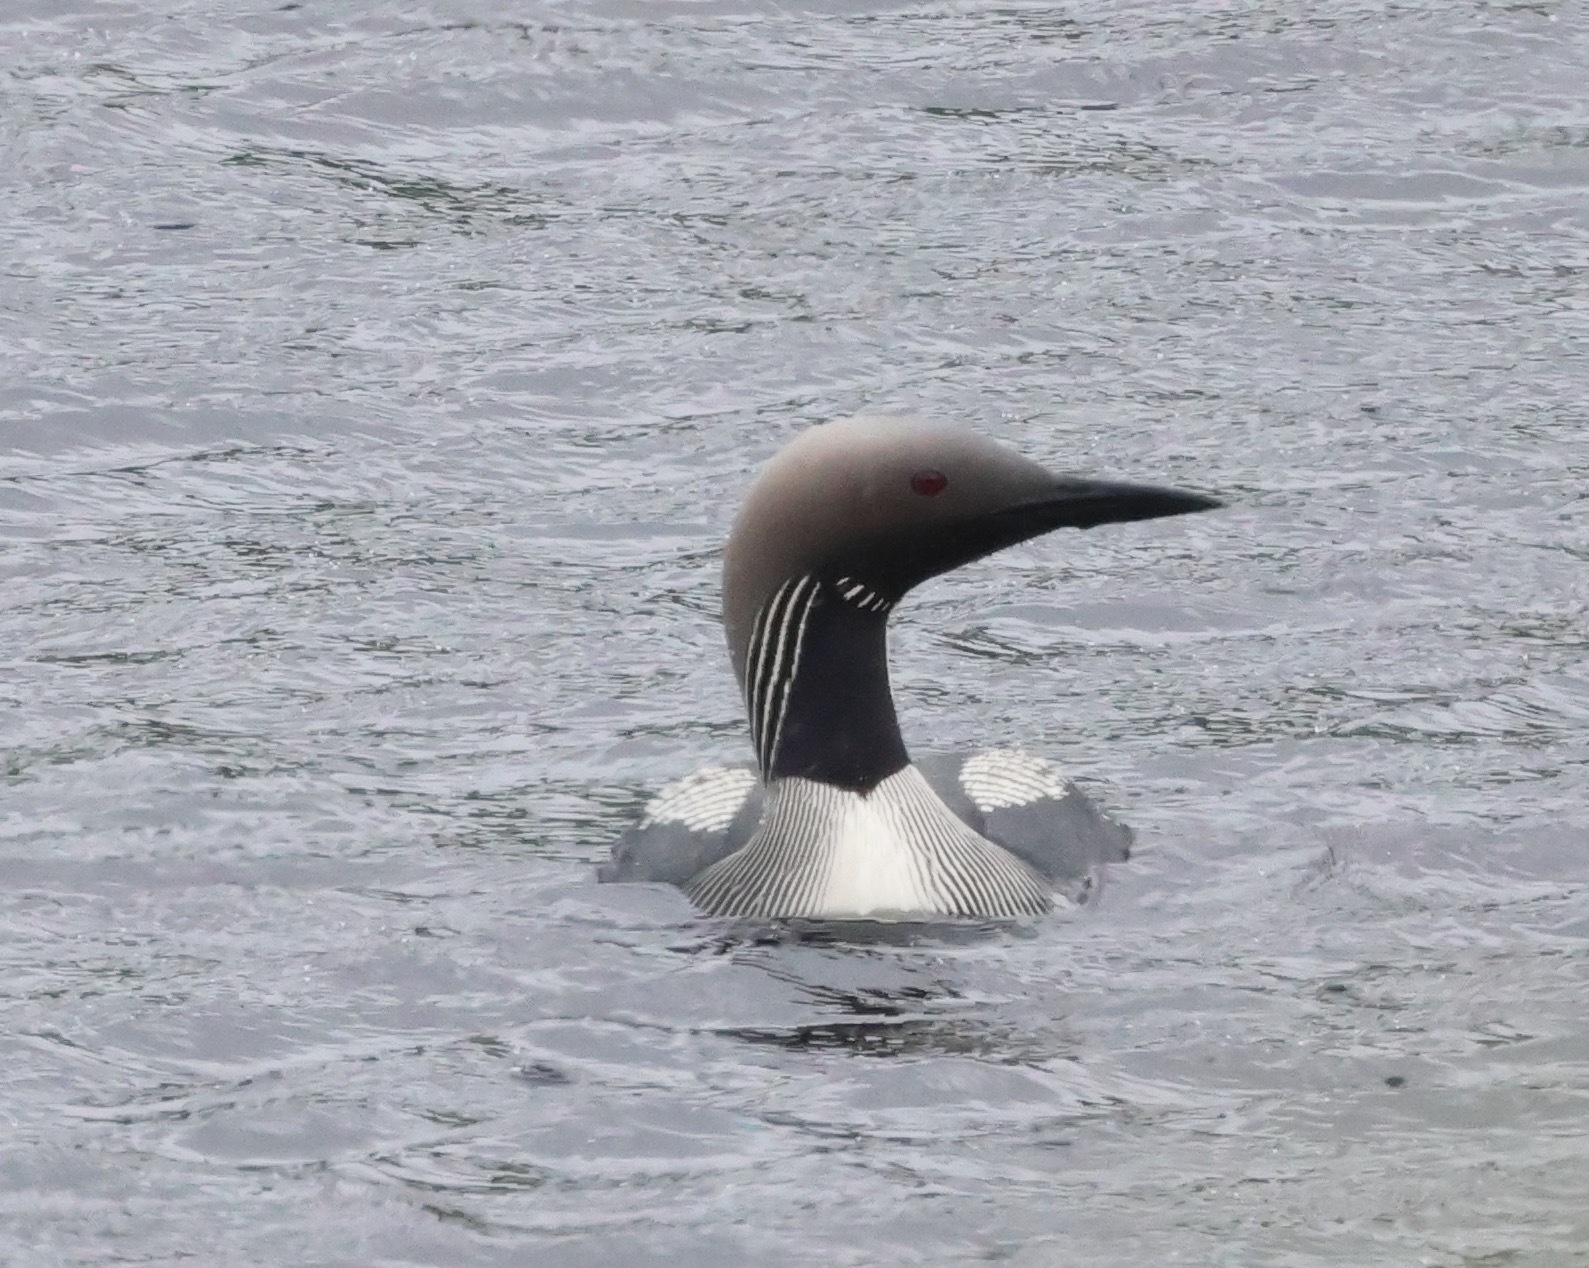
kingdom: Animalia
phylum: Chordata
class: Aves
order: Gaviiformes
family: Gaviidae
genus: Gavia
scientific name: Gavia arctica
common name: Black-throated loon
